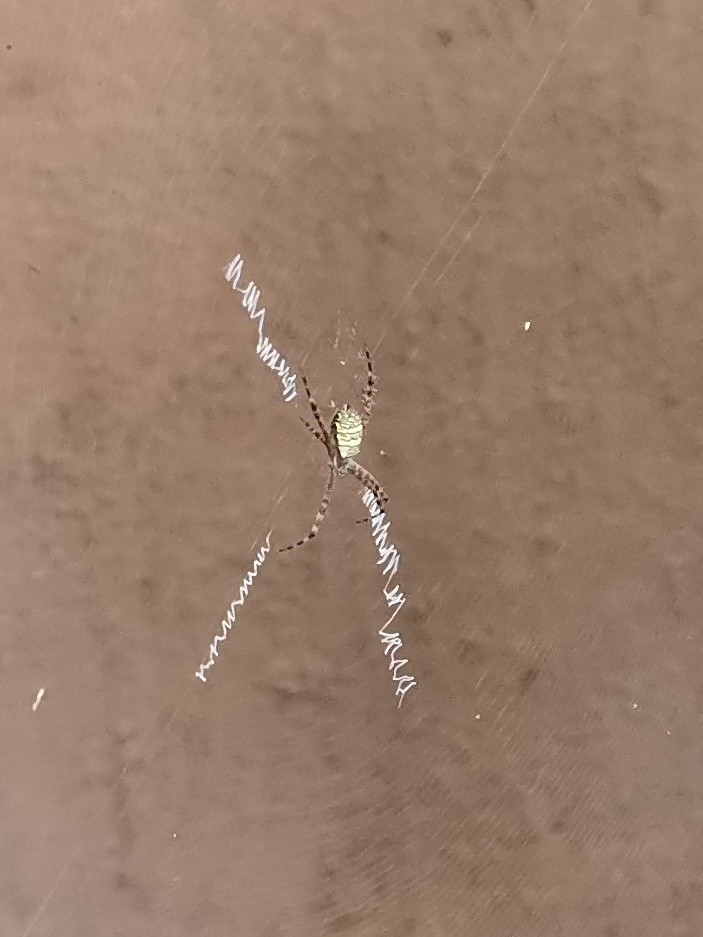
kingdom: Animalia
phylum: Arthropoda
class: Arachnida
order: Araneae
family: Araneidae
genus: Argiope
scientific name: Argiope aemula
